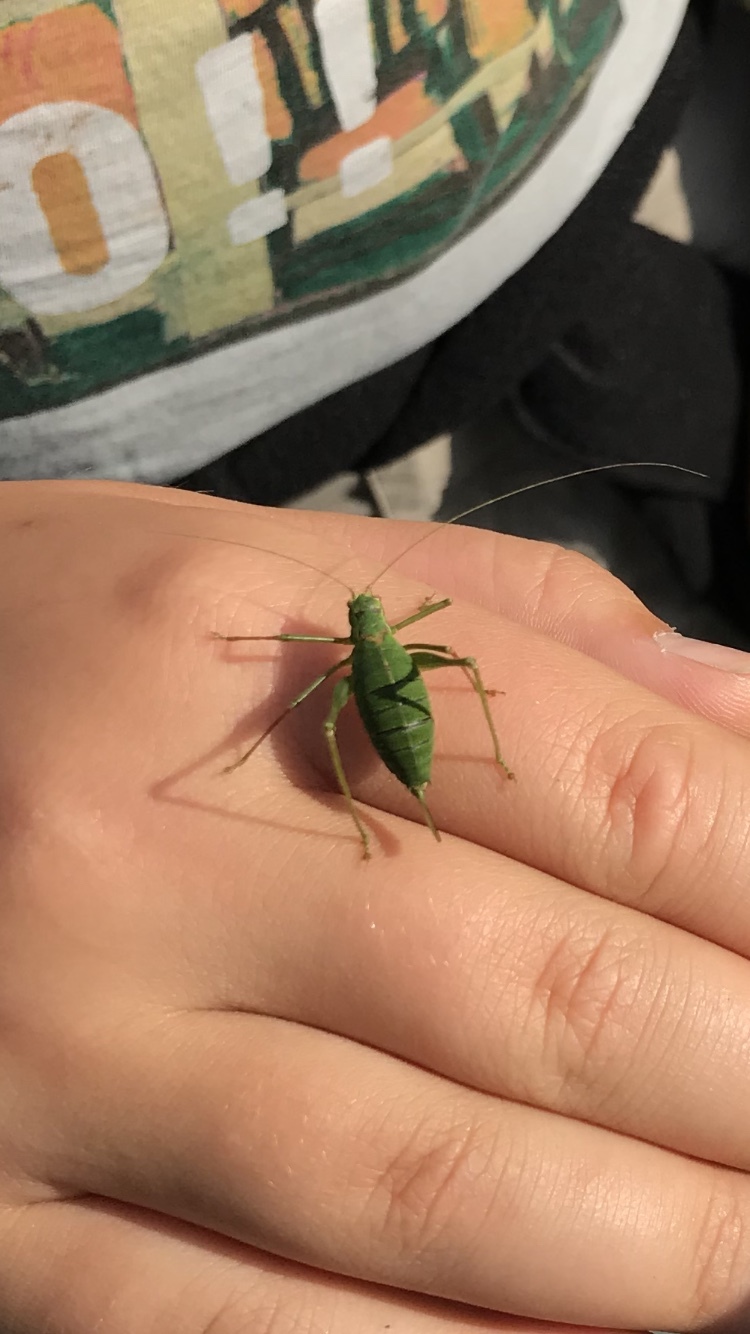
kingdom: Animalia
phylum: Arthropoda
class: Insecta
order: Orthoptera
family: Tettigoniidae
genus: Leptophyes
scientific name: Leptophyes punctatissima
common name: Speckled bush-cricket
